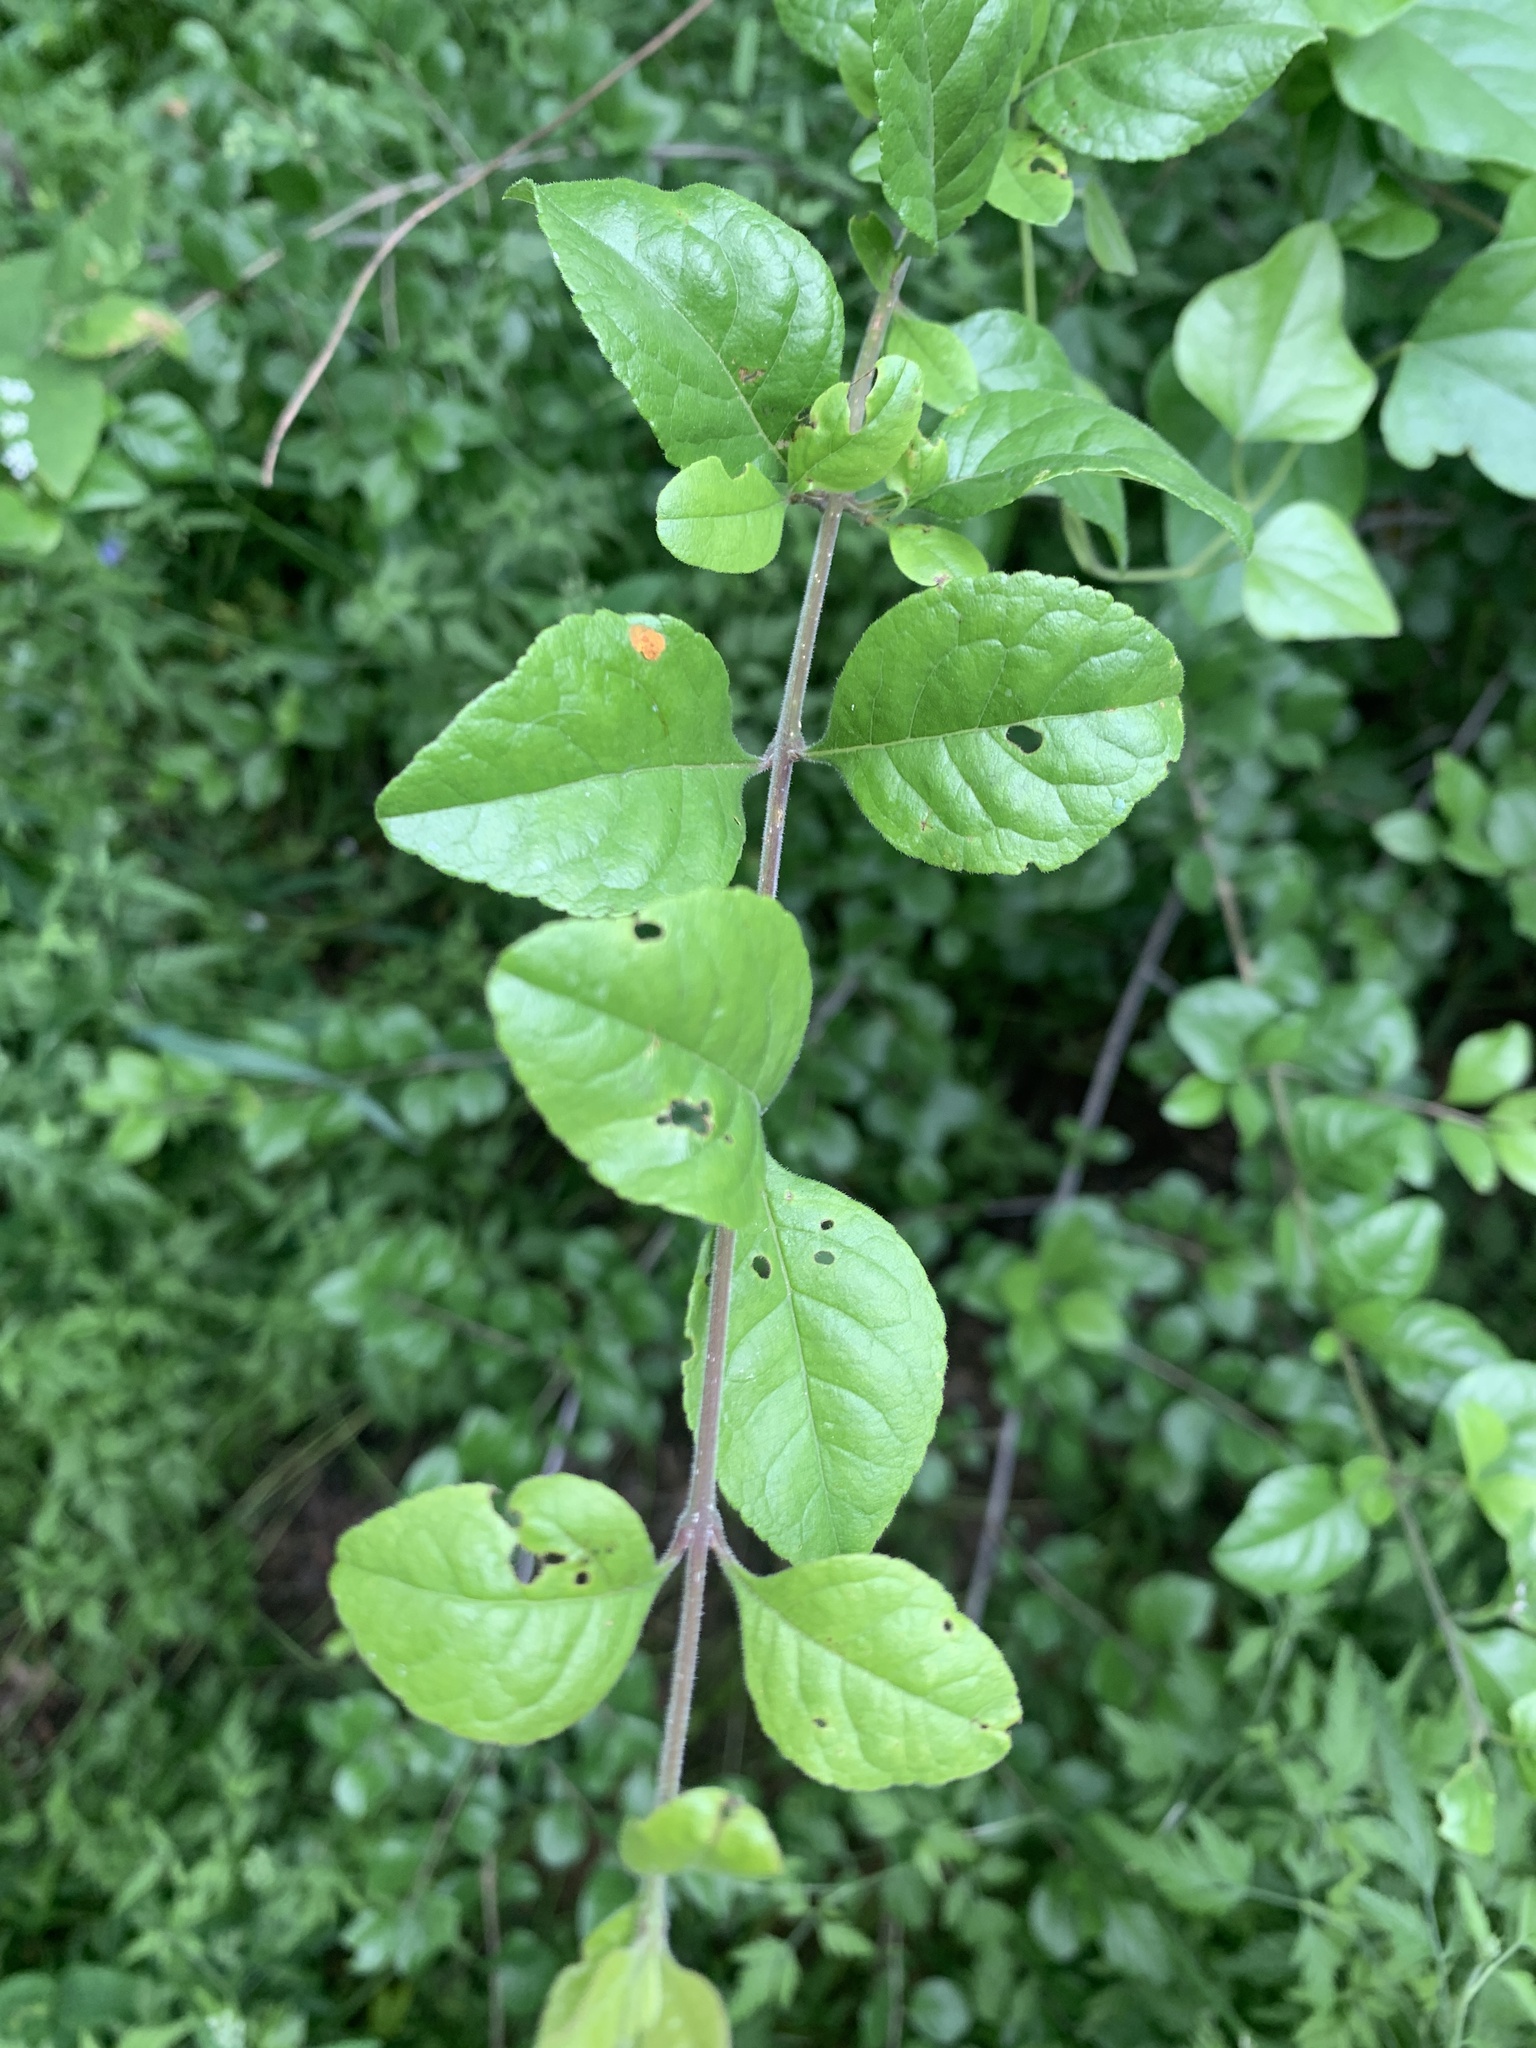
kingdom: Plantae
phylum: Tracheophyta
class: Magnoliopsida
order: Lamiales
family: Oleaceae
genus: Forestiera
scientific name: Forestiera pubescens
